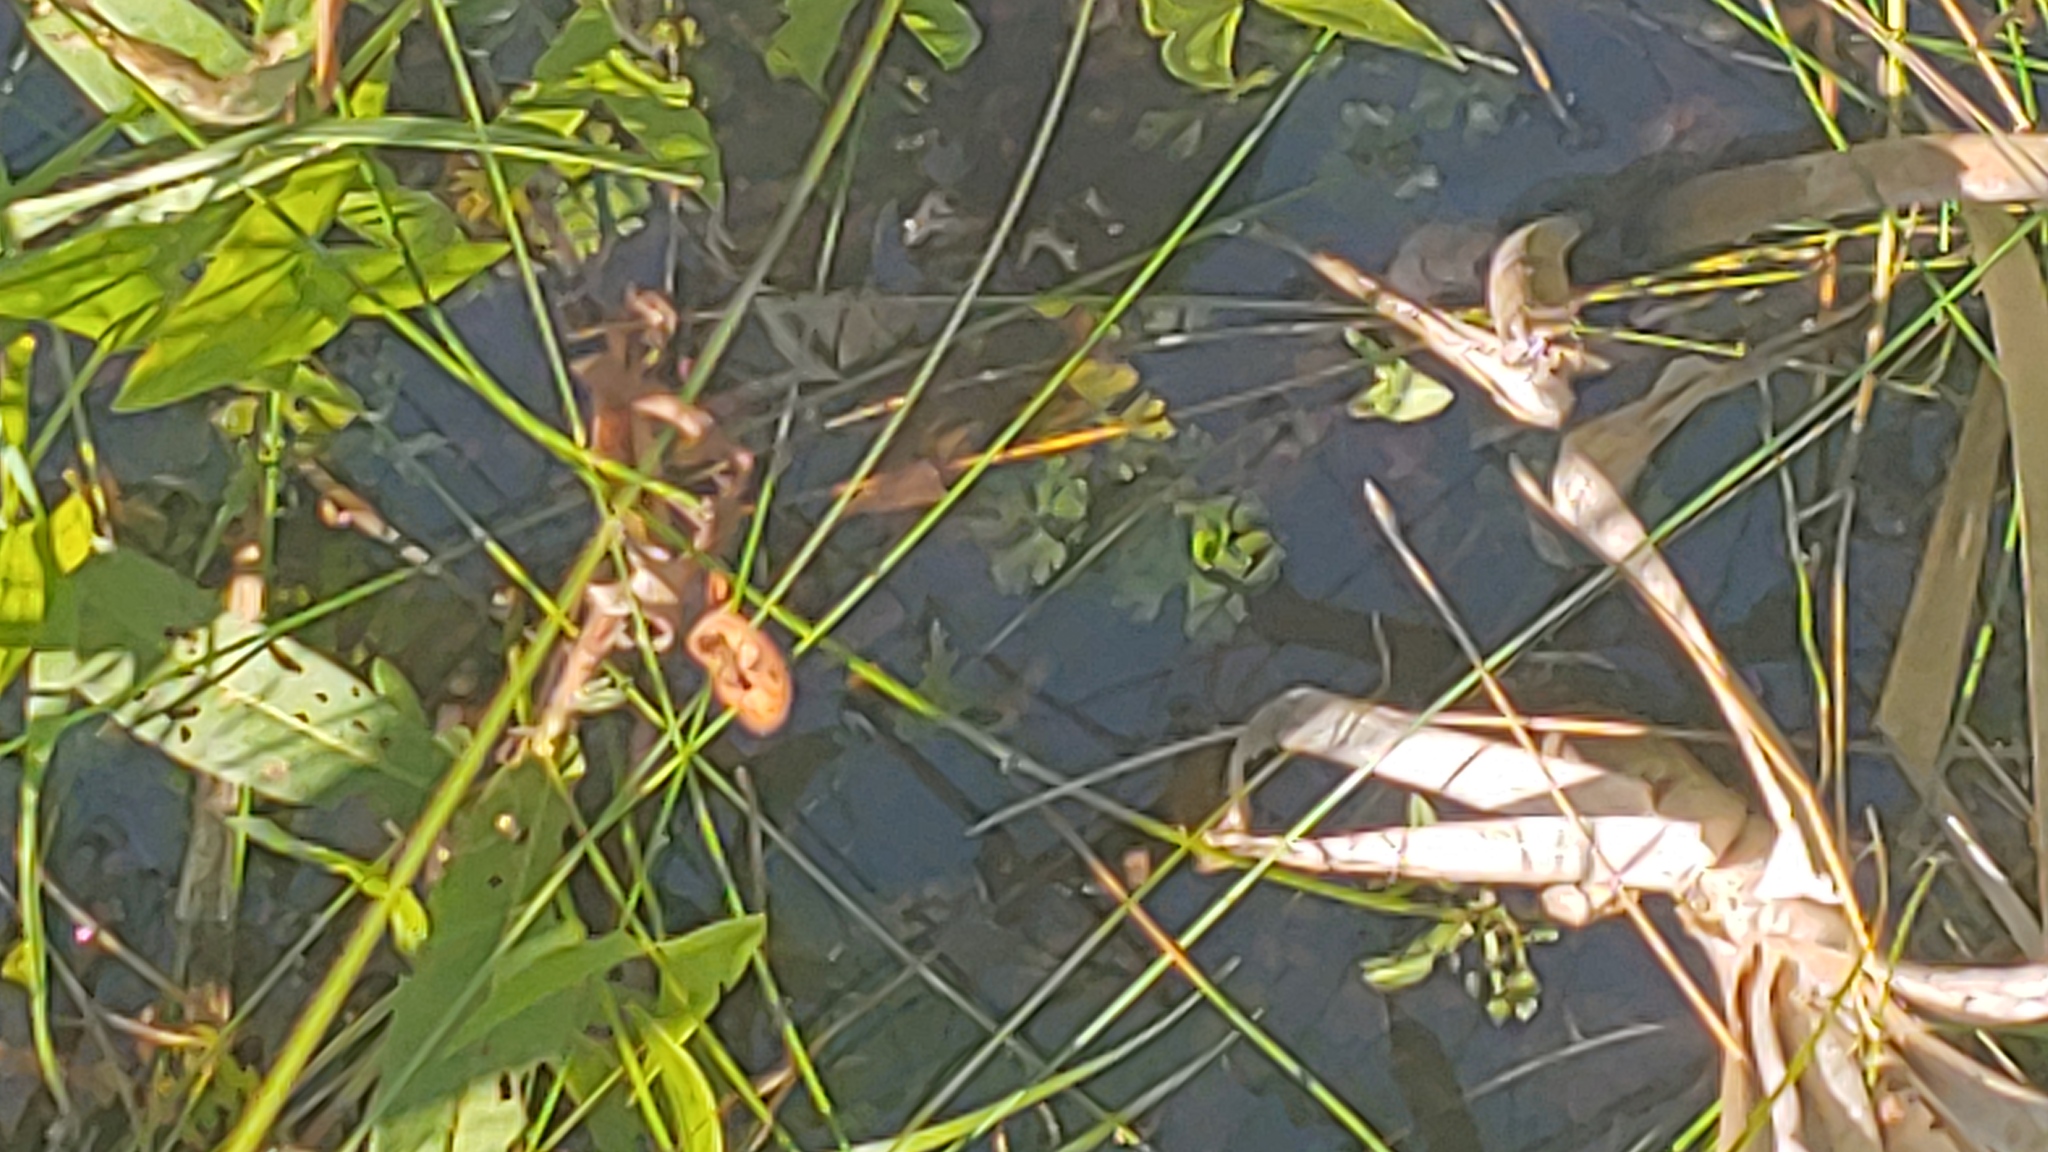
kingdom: Plantae
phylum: Tracheophyta
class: Magnoliopsida
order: Ranunculales
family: Ranunculaceae
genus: Ranunculus
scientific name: Ranunculus flabellaris
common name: Yellow water-crowfoot
